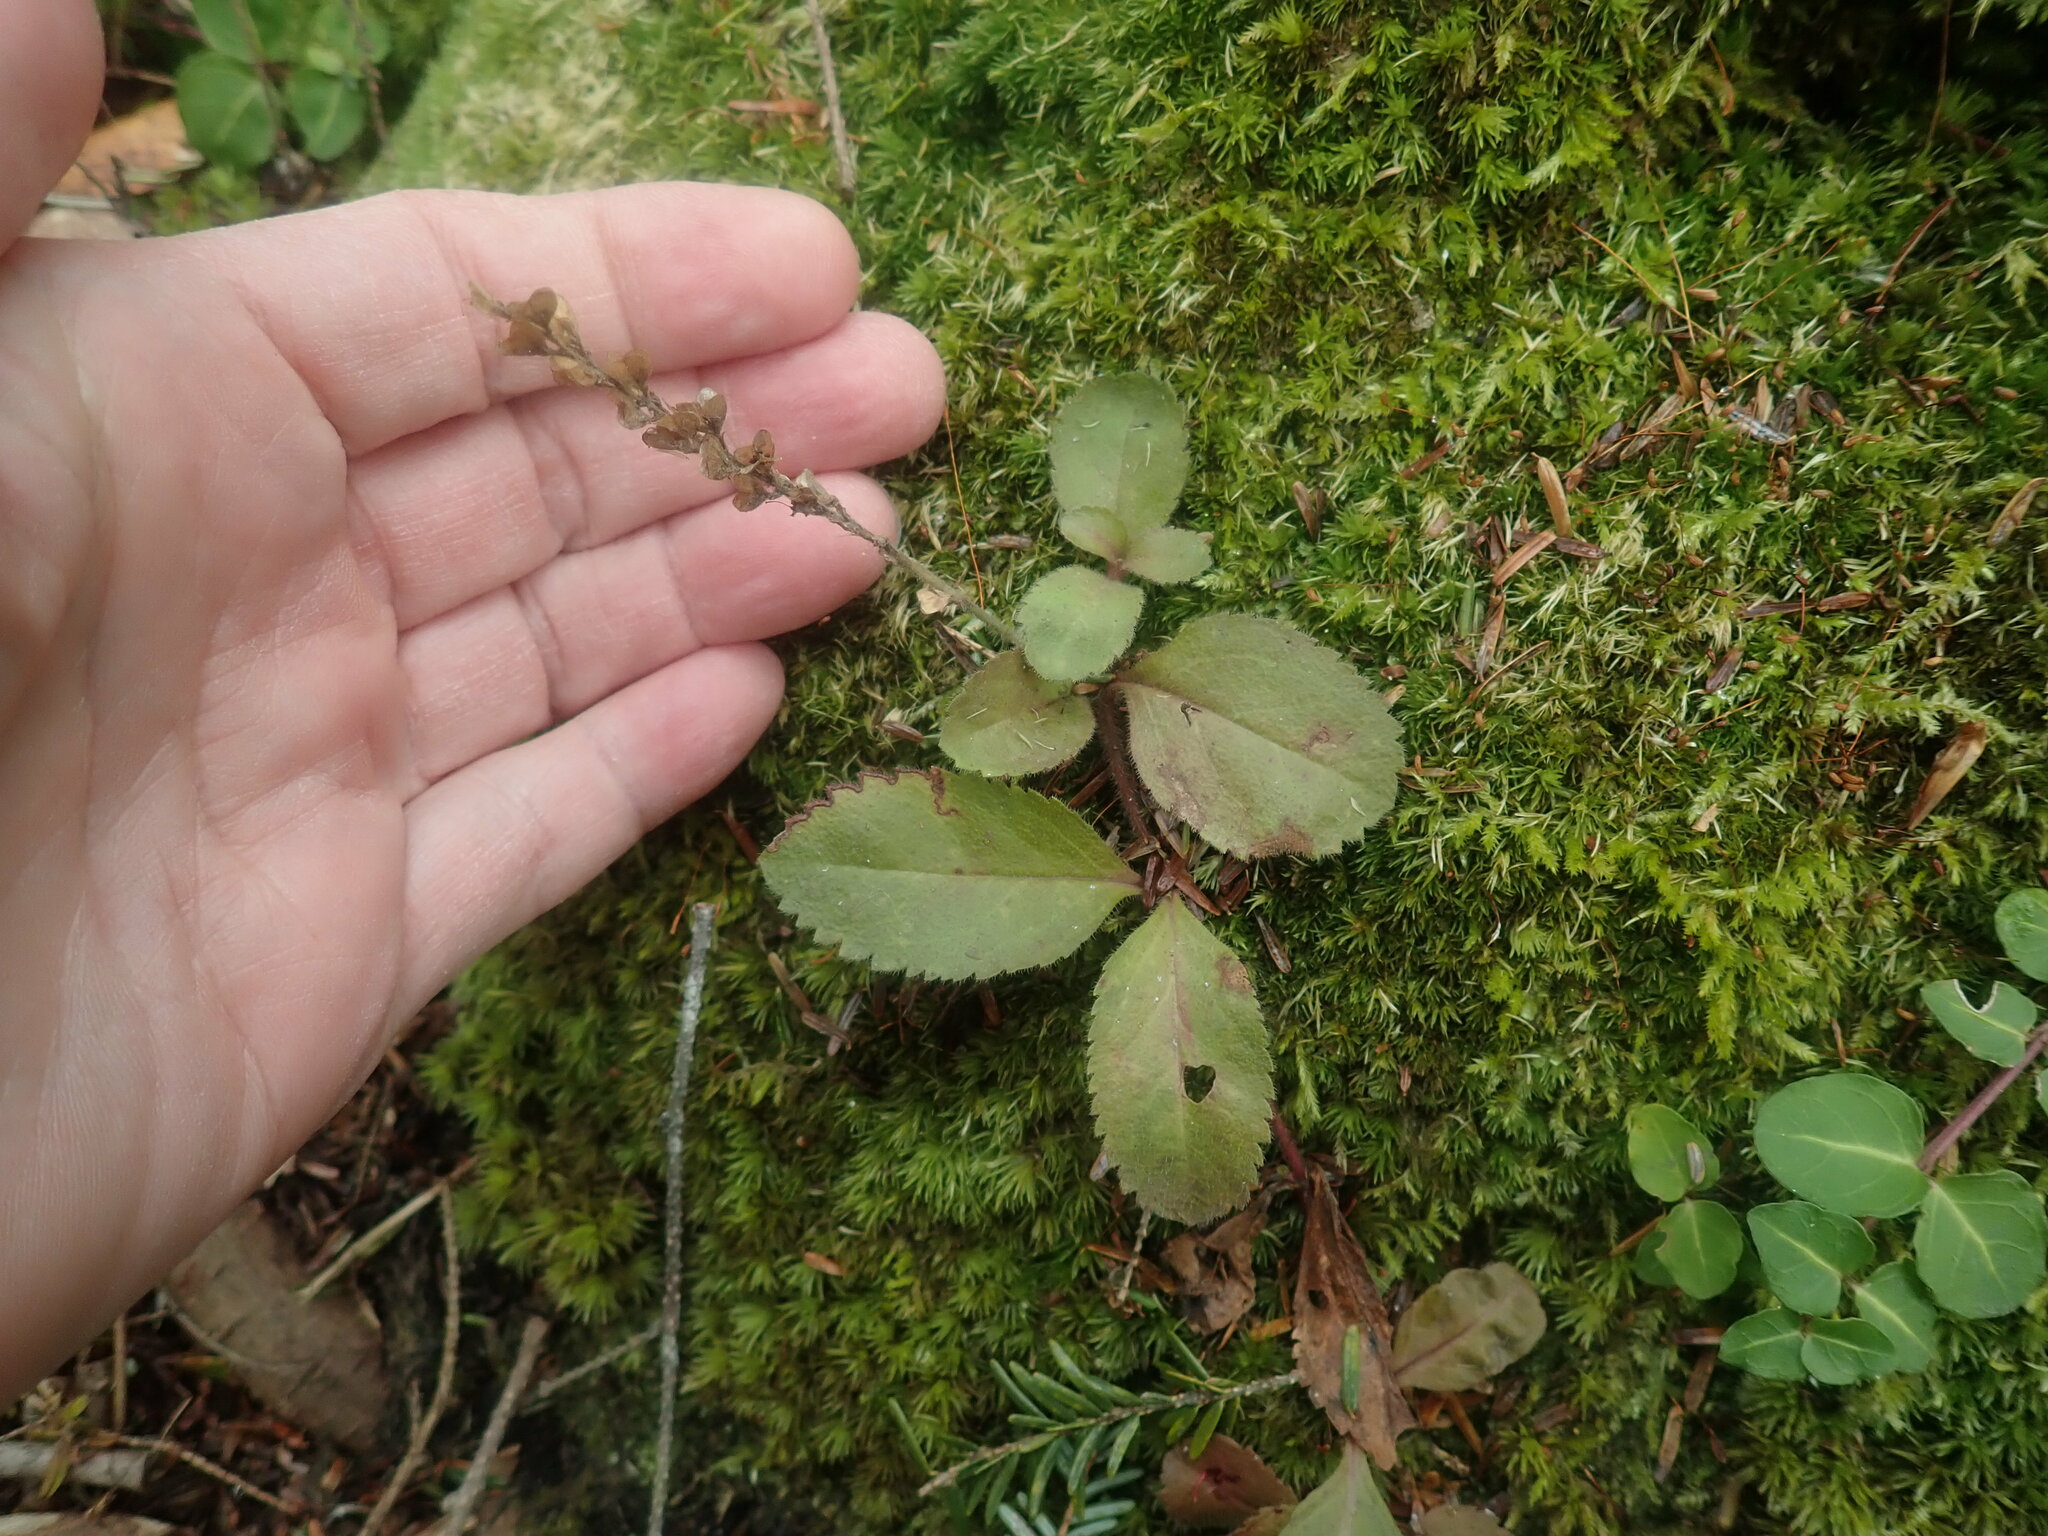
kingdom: Plantae
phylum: Tracheophyta
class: Magnoliopsida
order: Lamiales
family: Plantaginaceae
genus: Veronica
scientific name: Veronica officinalis
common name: Common speedwell
